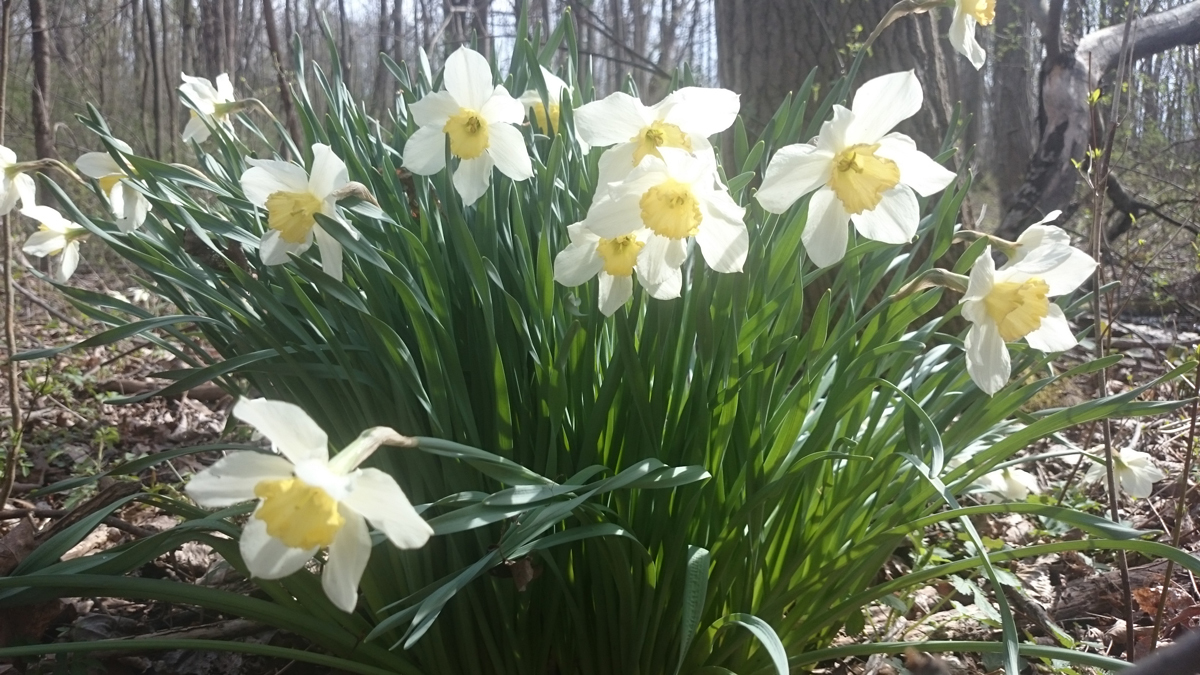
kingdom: Plantae
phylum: Tracheophyta
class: Liliopsida
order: Asparagales
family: Amaryllidaceae
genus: Narcissus
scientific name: Narcissus
